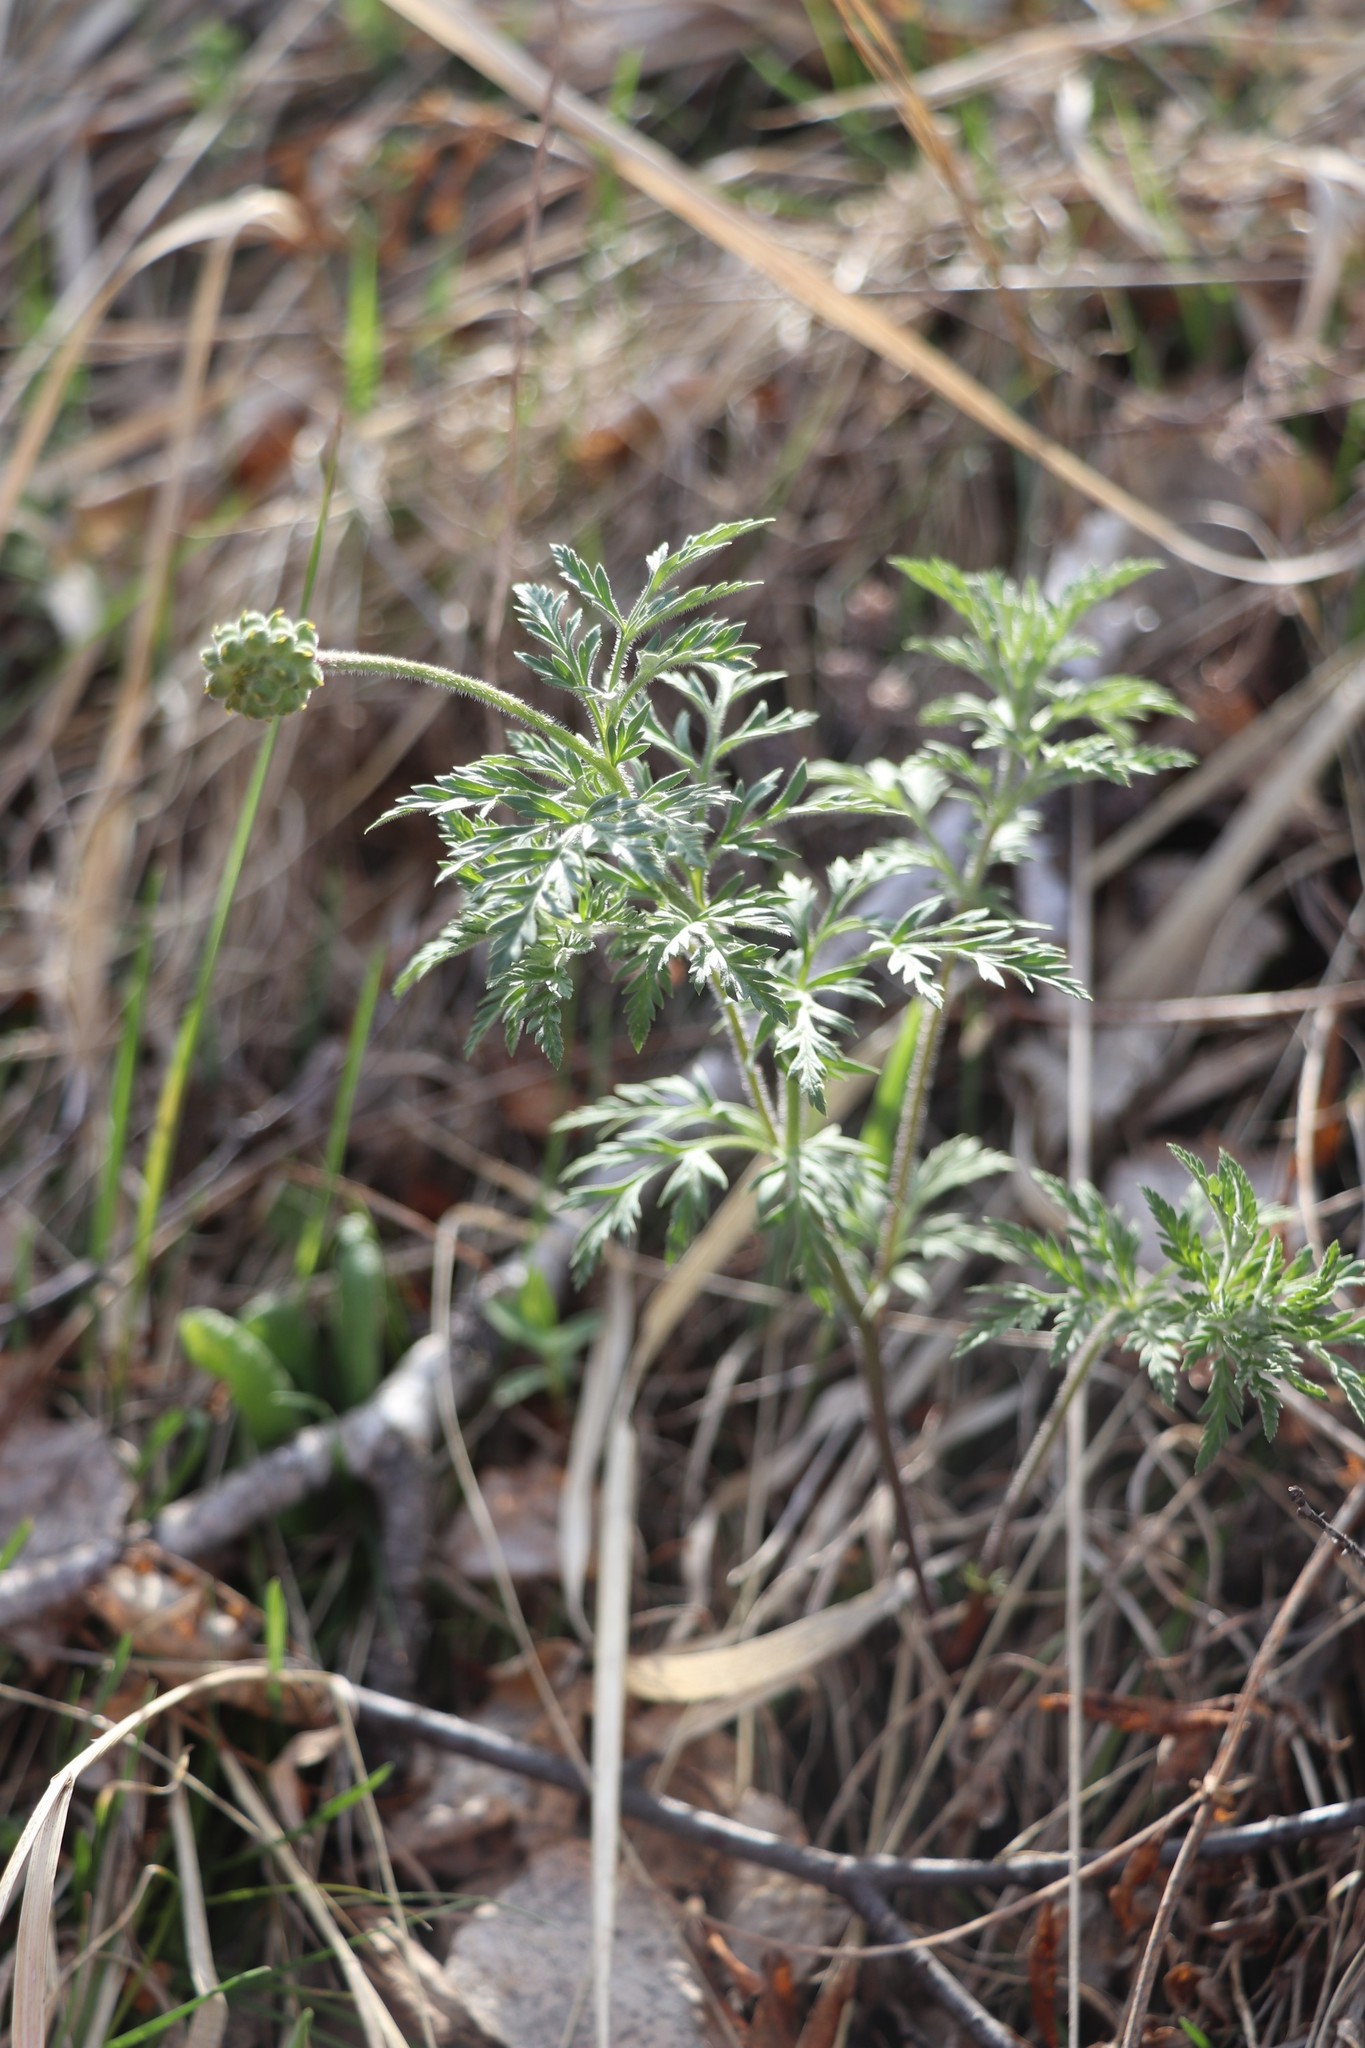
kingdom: Plantae
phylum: Tracheophyta
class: Magnoliopsida
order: Ranunculales
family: Ranunculaceae
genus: Adonis
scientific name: Adonis villosa
